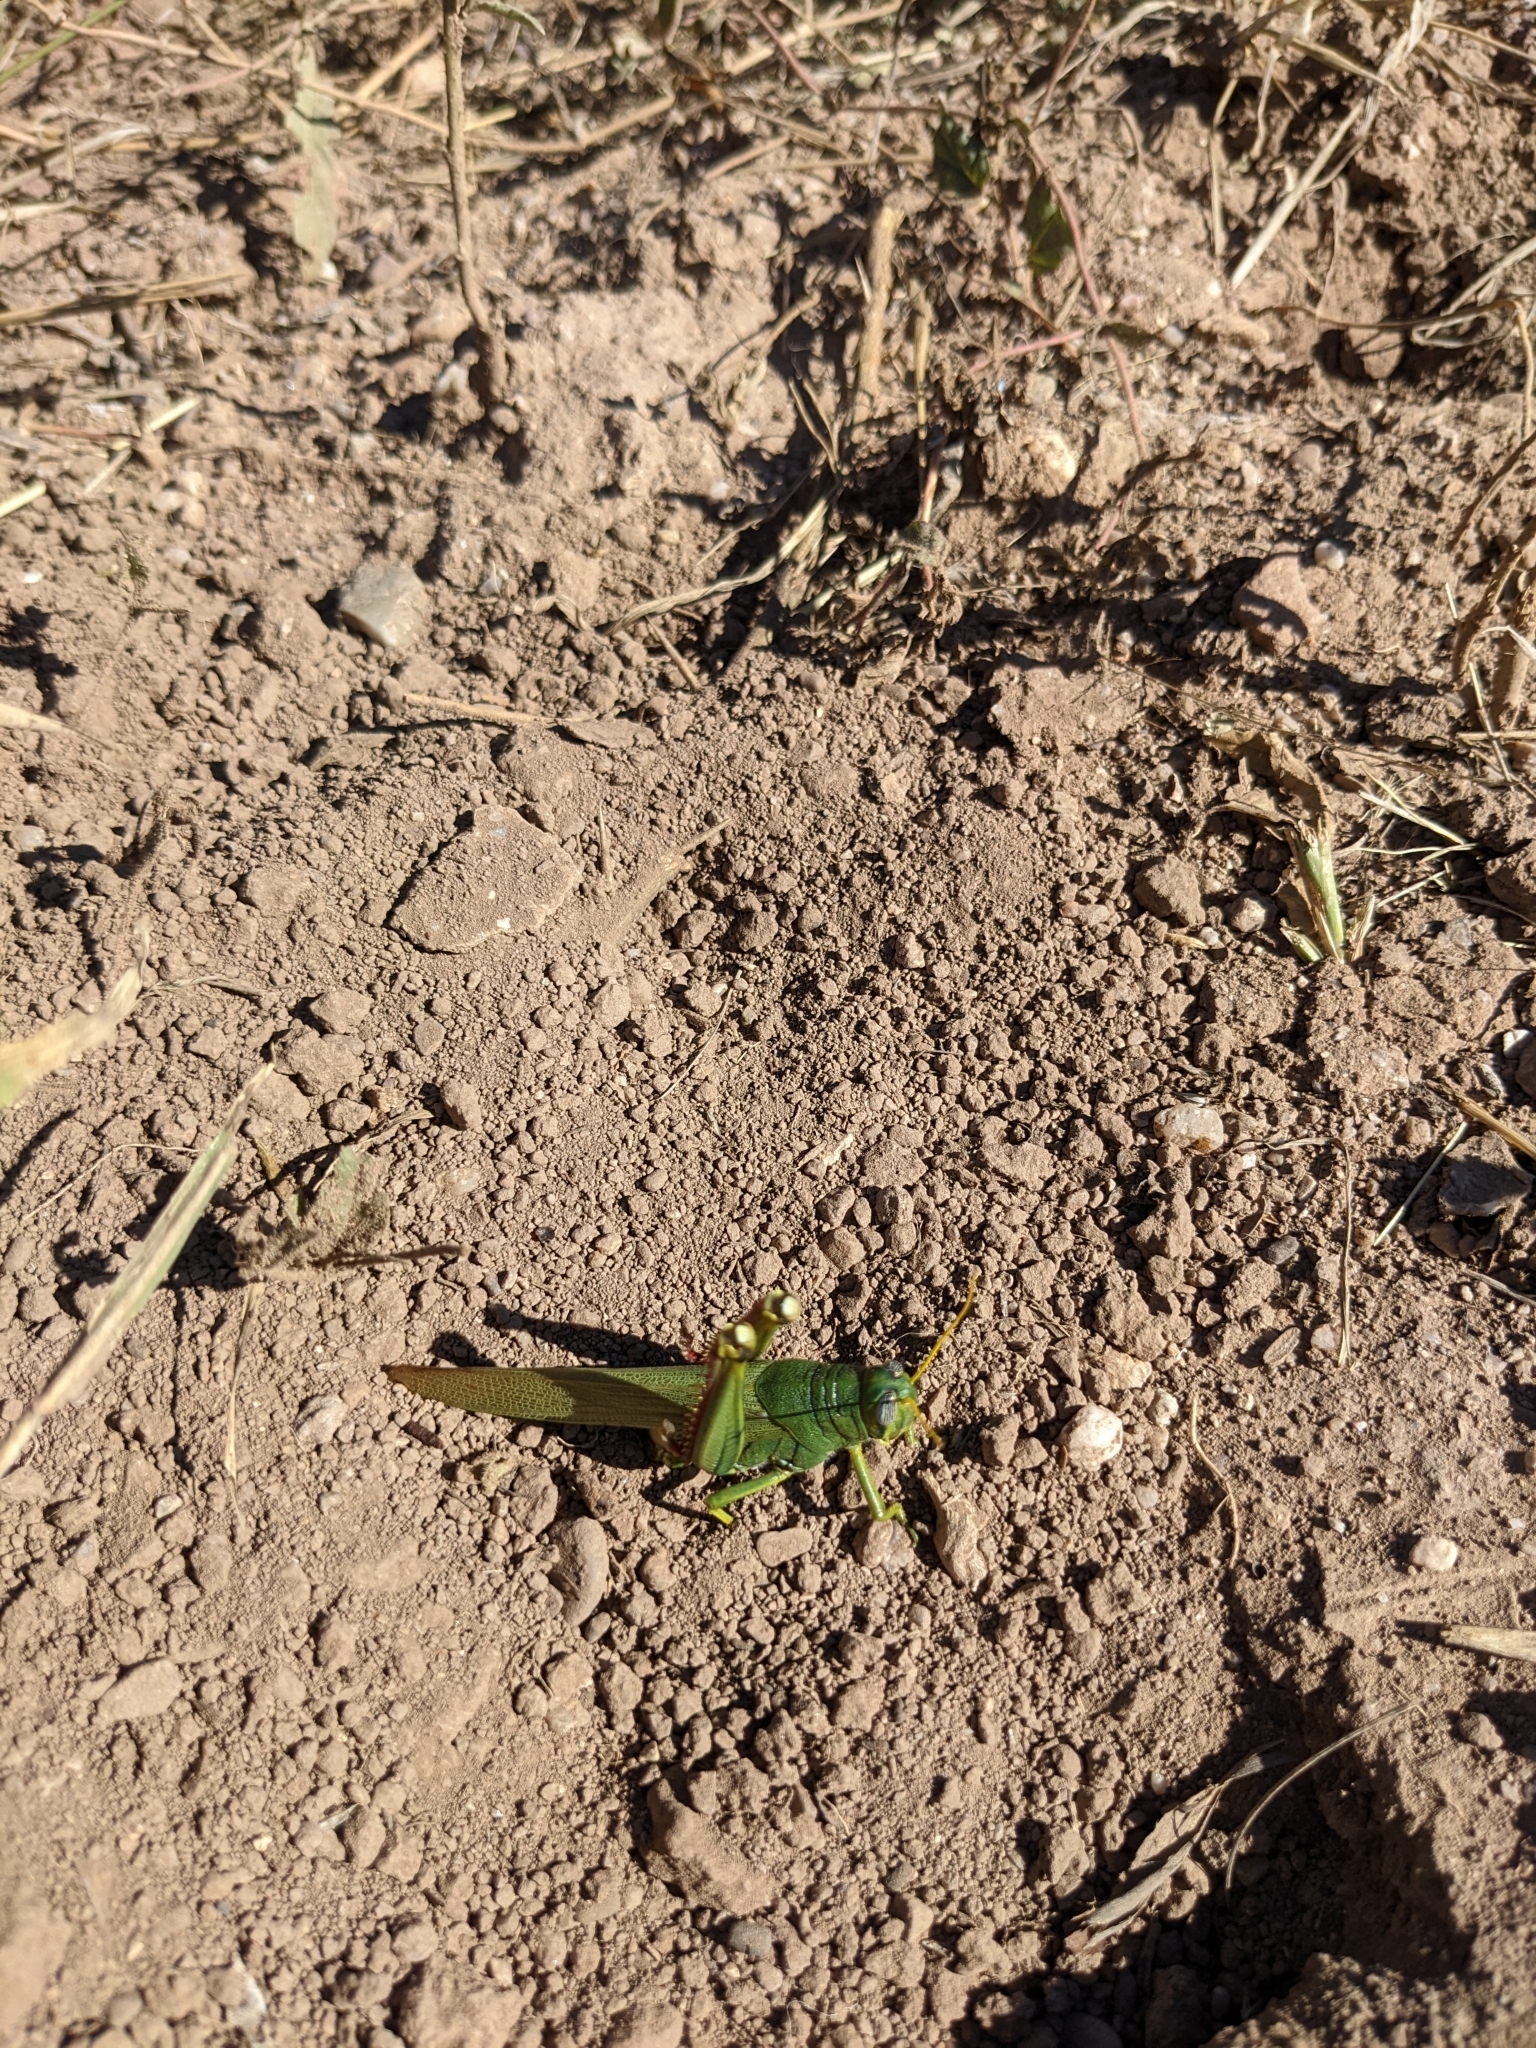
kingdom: Animalia
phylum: Arthropoda
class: Insecta
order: Orthoptera
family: Acrididae
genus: Schistocerca
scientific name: Schistocerca shoshone
